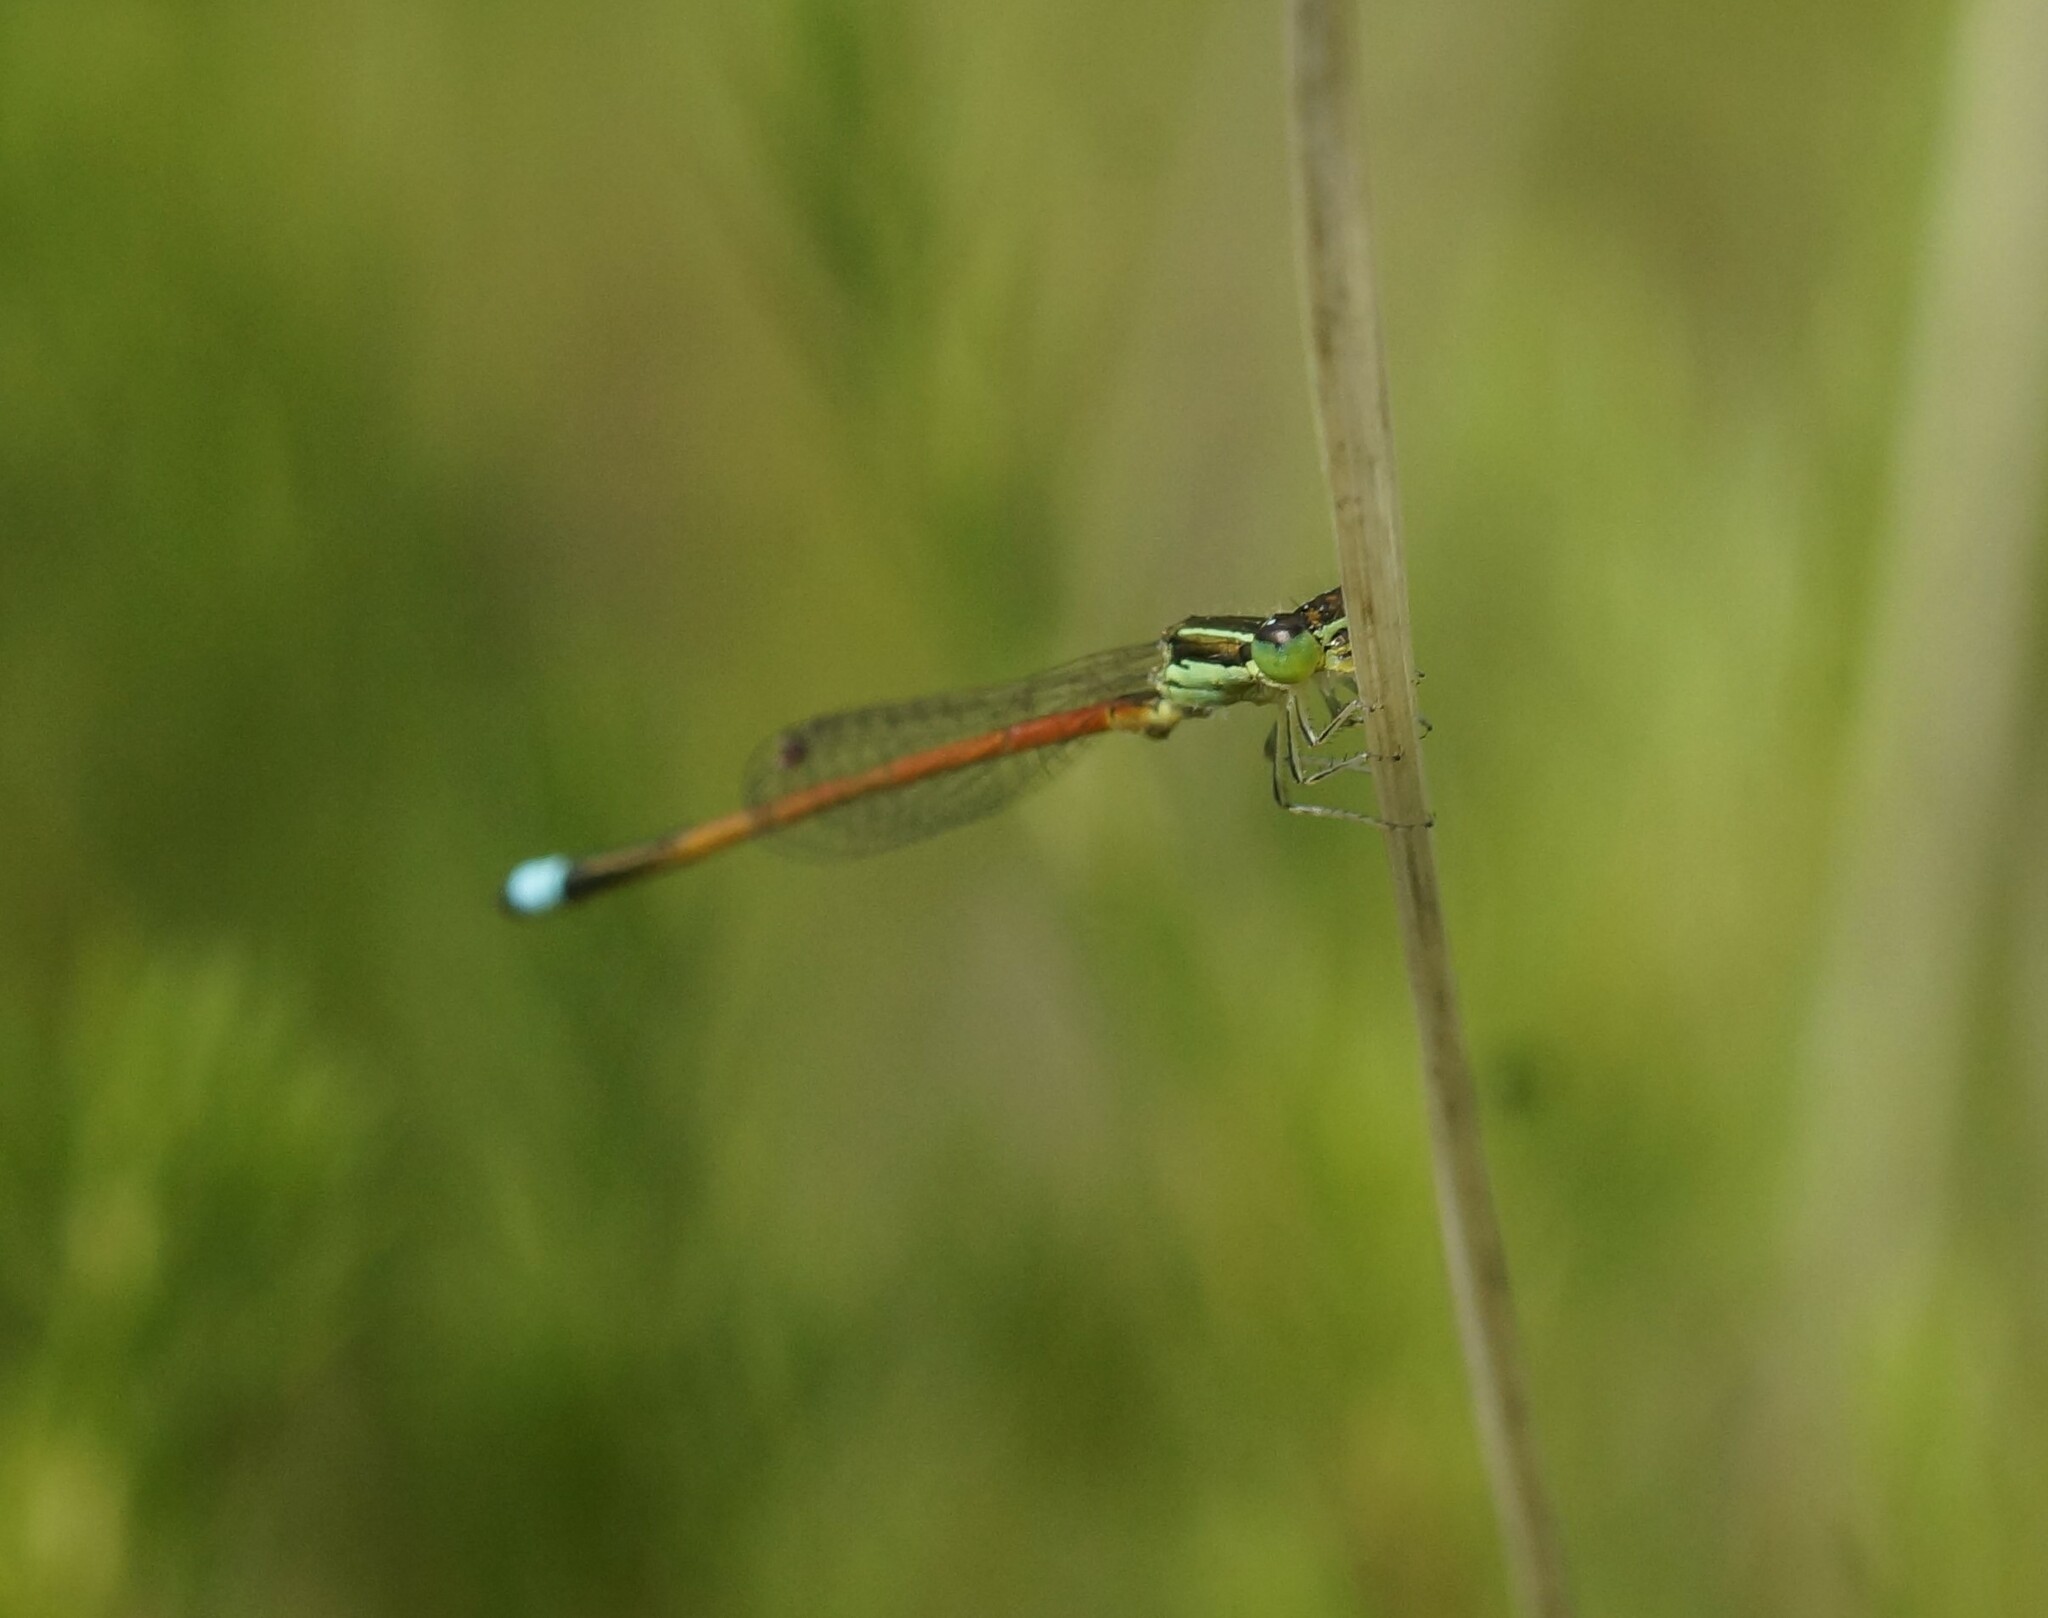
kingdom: Animalia
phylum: Arthropoda
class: Insecta
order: Odonata
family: Coenagrionidae
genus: Ischnura
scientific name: Ischnura aurora
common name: Gossamer damselfly
